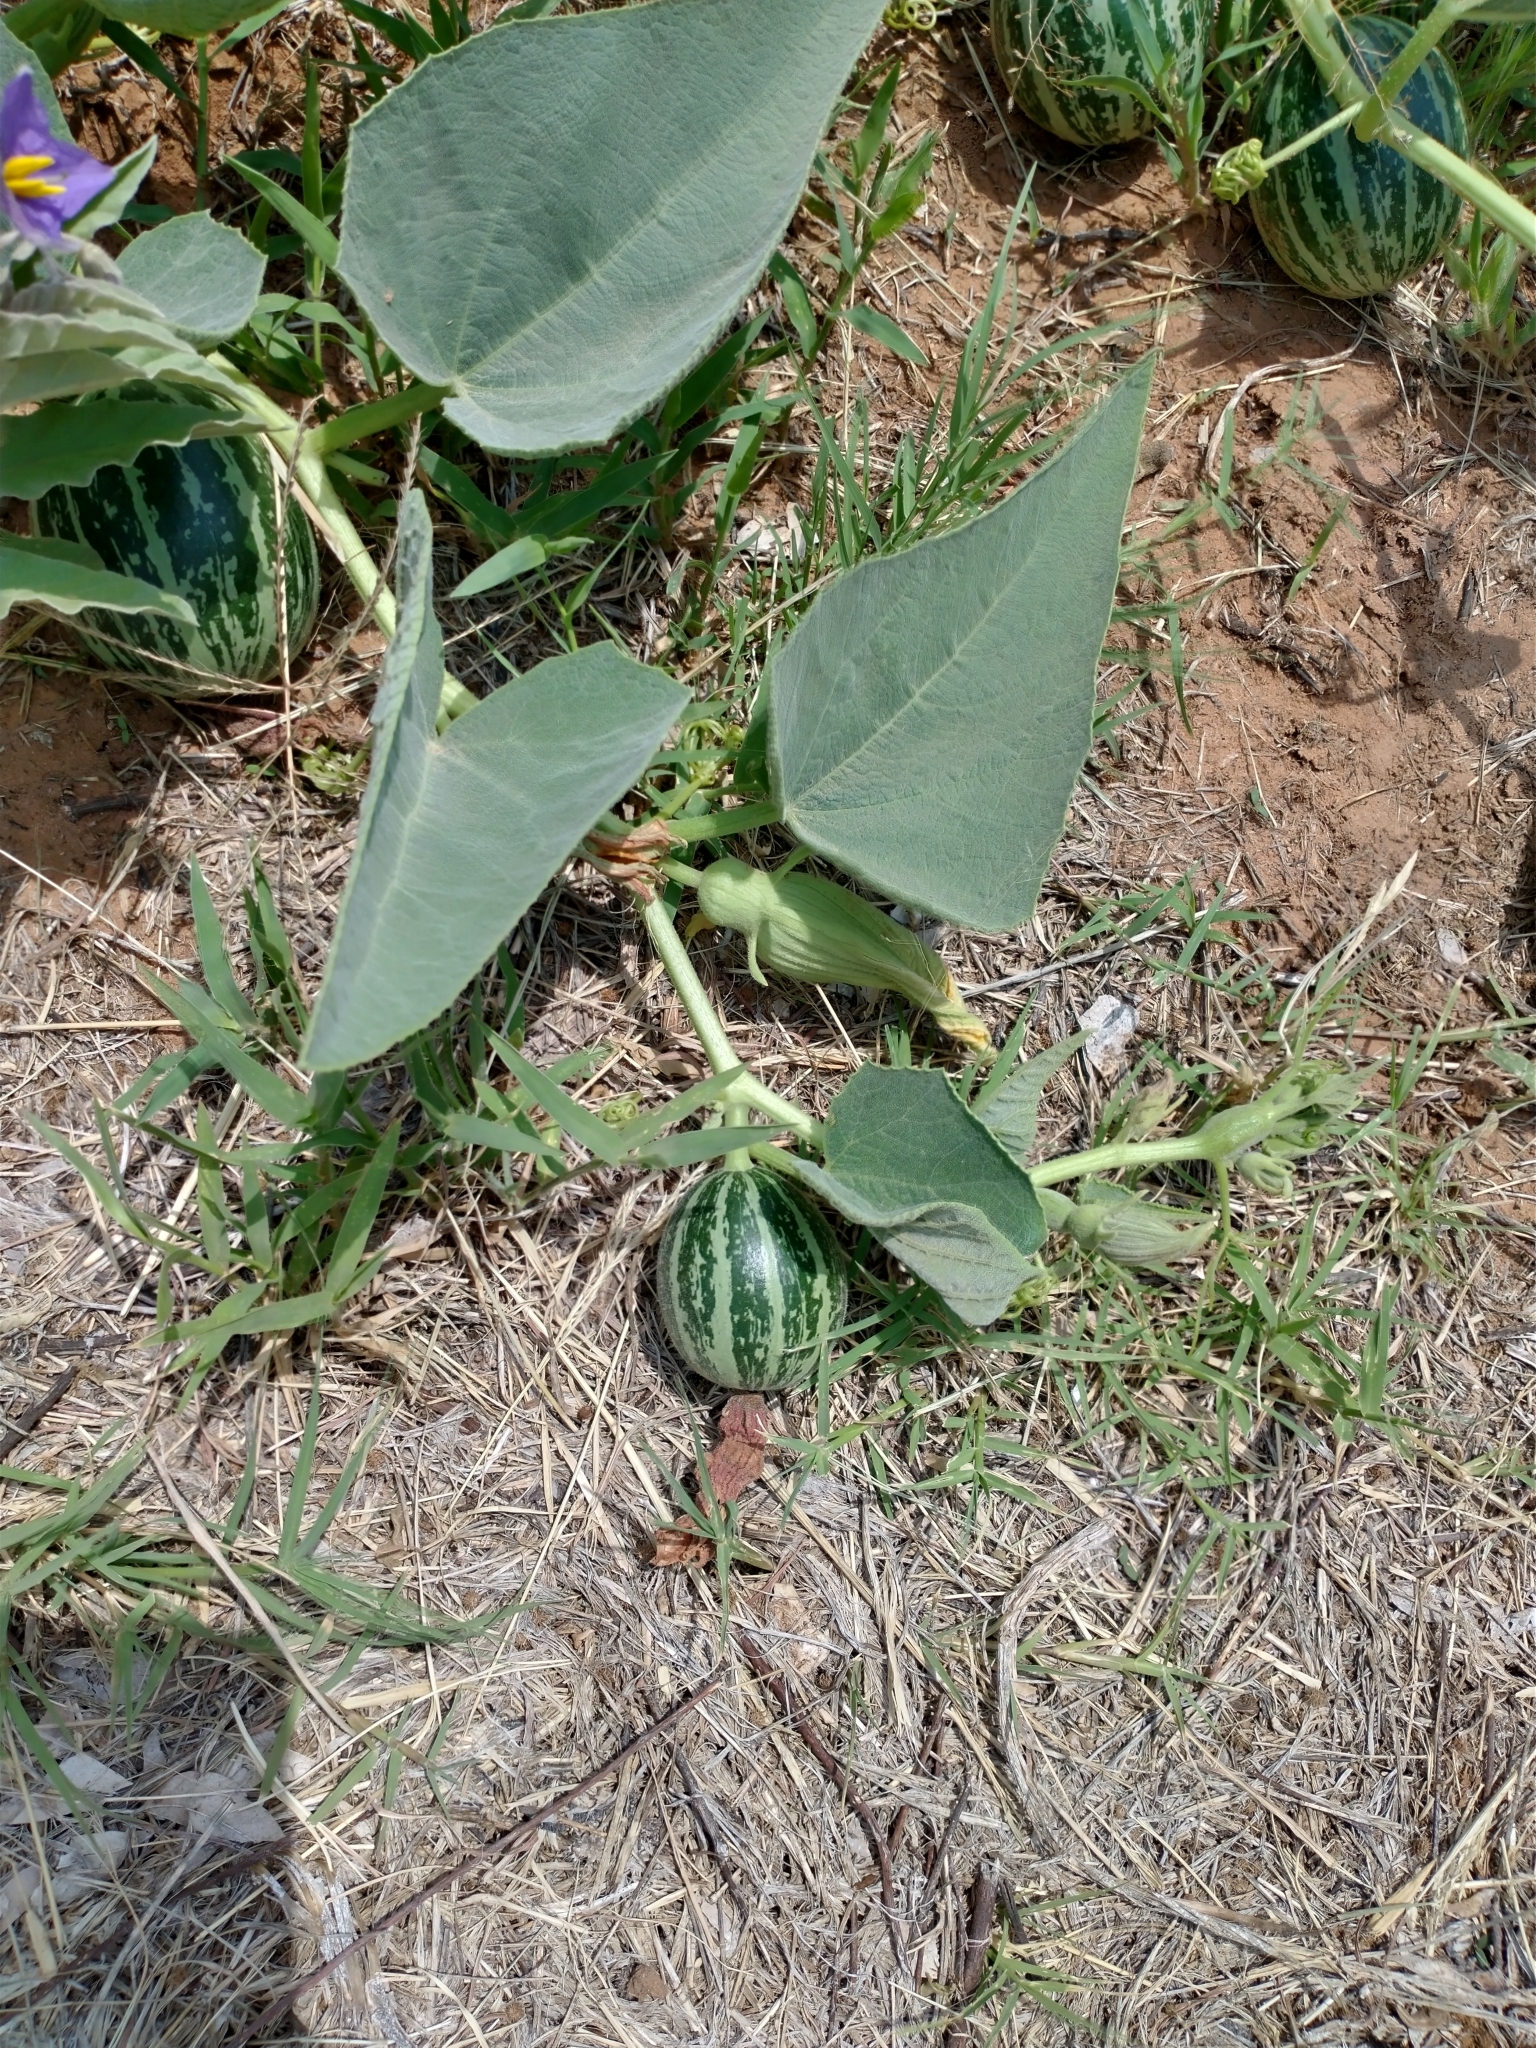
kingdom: Plantae
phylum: Tracheophyta
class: Magnoliopsida
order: Cucurbitales
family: Cucurbitaceae
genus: Cucurbita
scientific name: Cucurbita foetidissima
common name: Buffalo gourd
